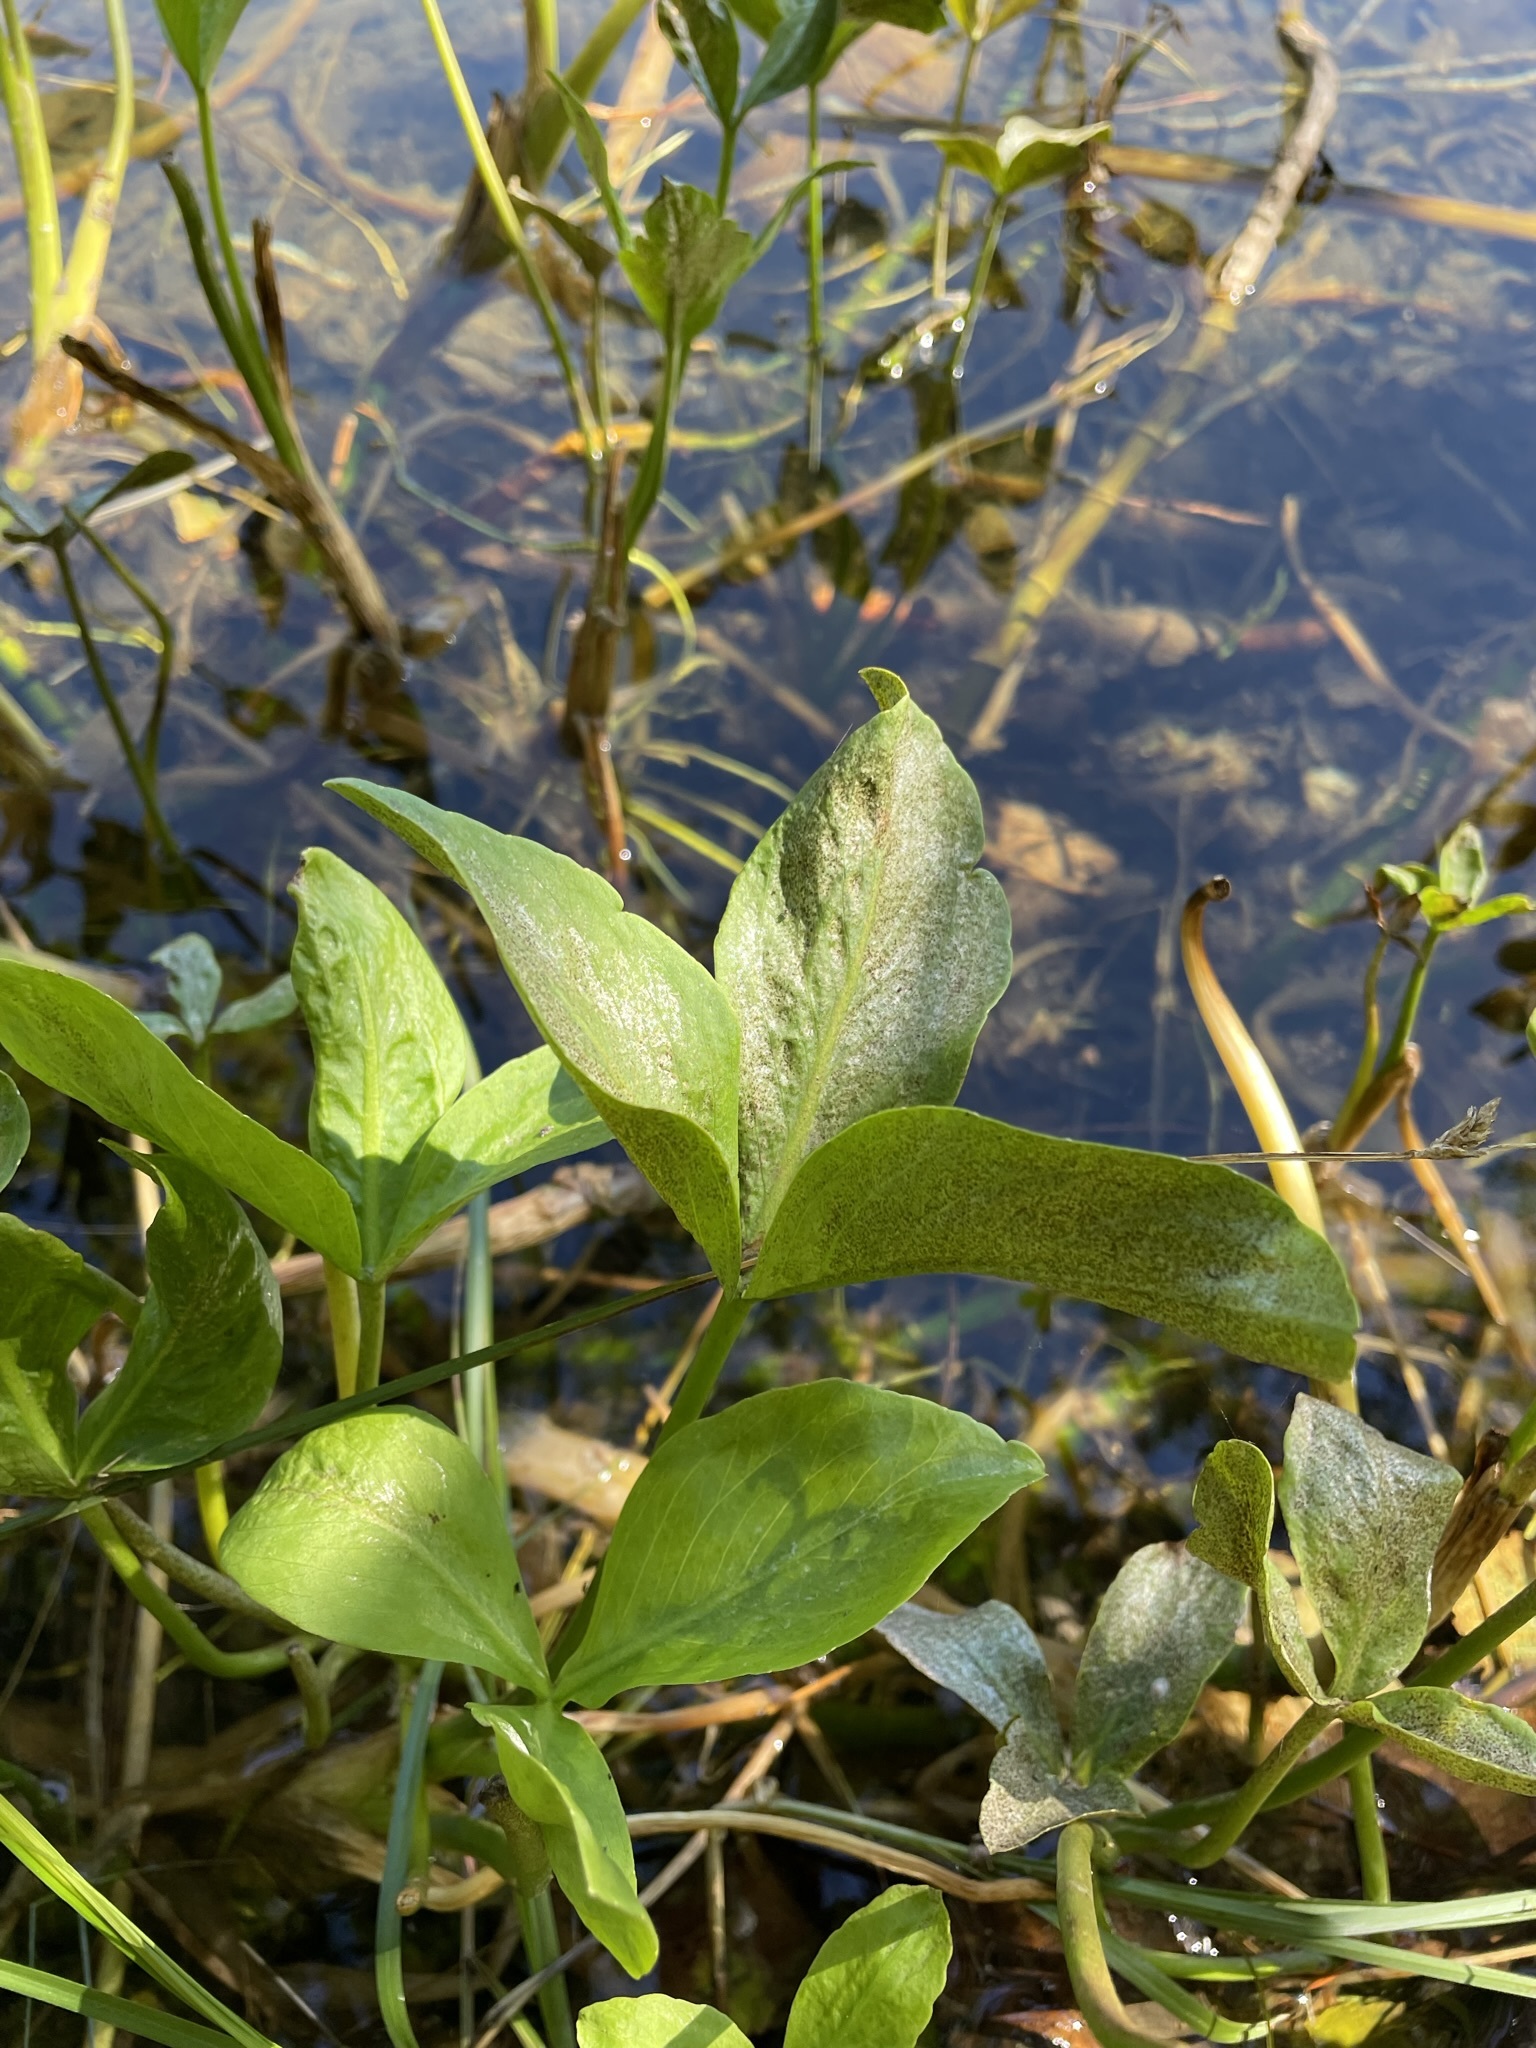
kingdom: Plantae
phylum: Tracheophyta
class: Magnoliopsida
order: Asterales
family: Menyanthaceae
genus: Menyanthes
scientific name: Menyanthes trifoliata
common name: Bogbean
